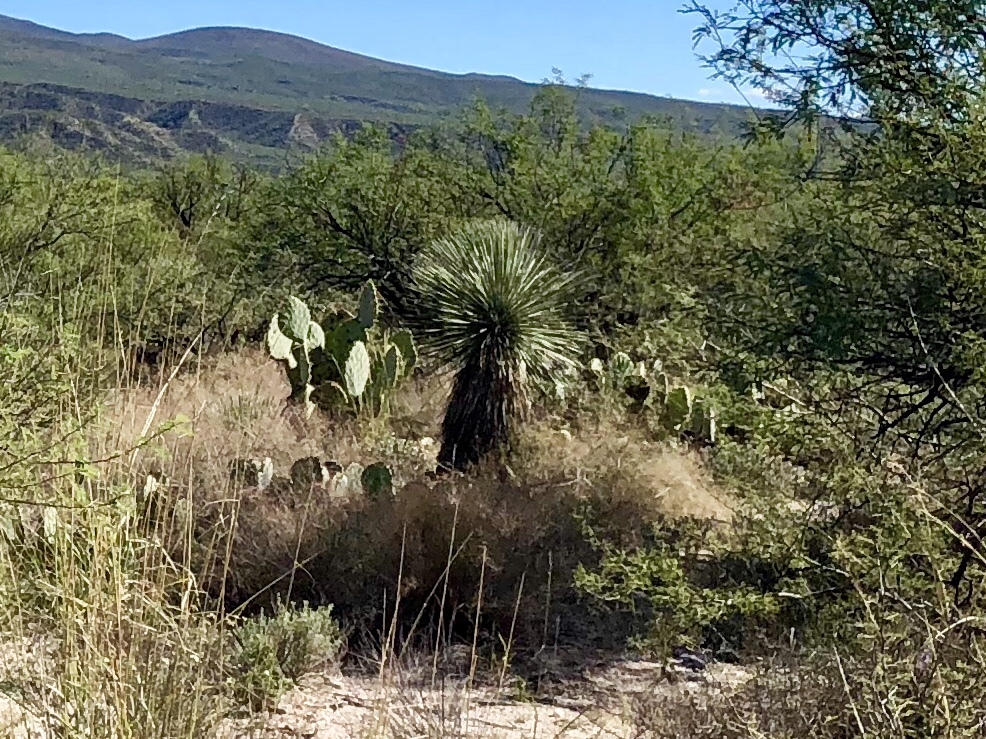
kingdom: Plantae
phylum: Tracheophyta
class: Liliopsida
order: Asparagales
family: Asparagaceae
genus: Yucca
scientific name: Yucca elata
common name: Palmella
